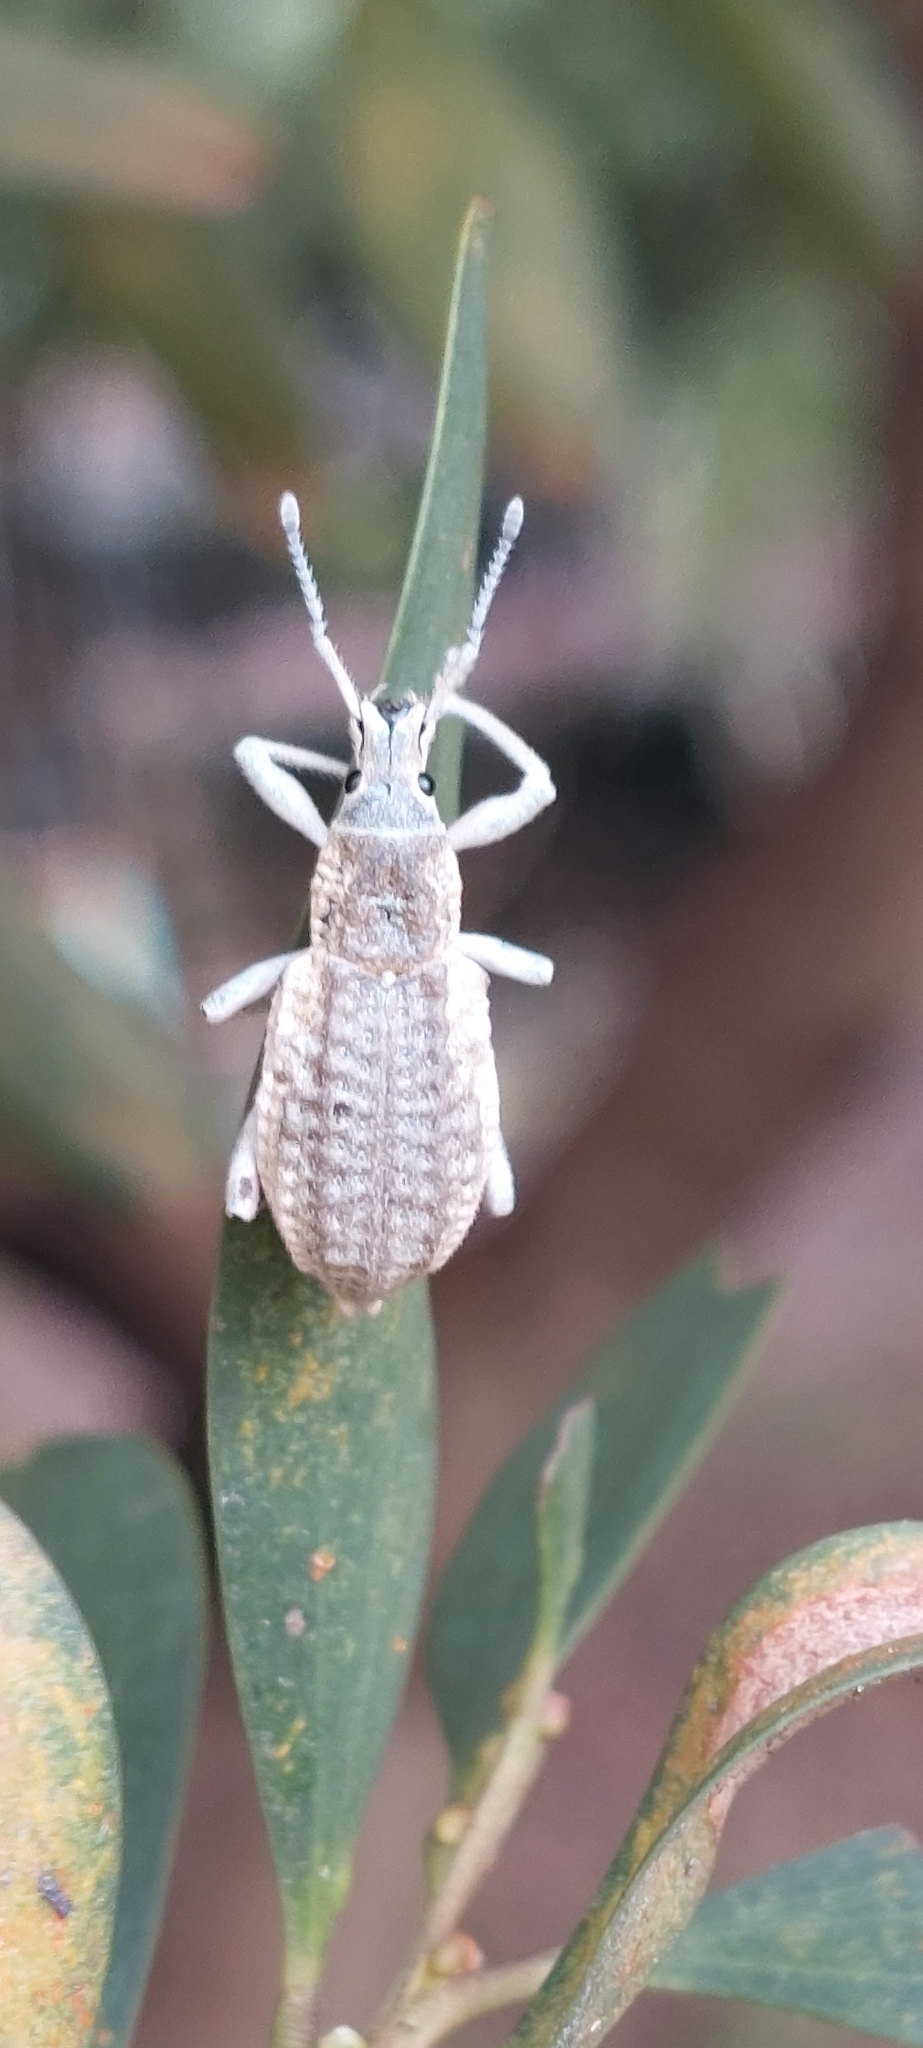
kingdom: Animalia
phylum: Arthropoda
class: Insecta
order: Coleoptera
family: Curculionidae
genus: Compsus
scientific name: Compsus canescens
